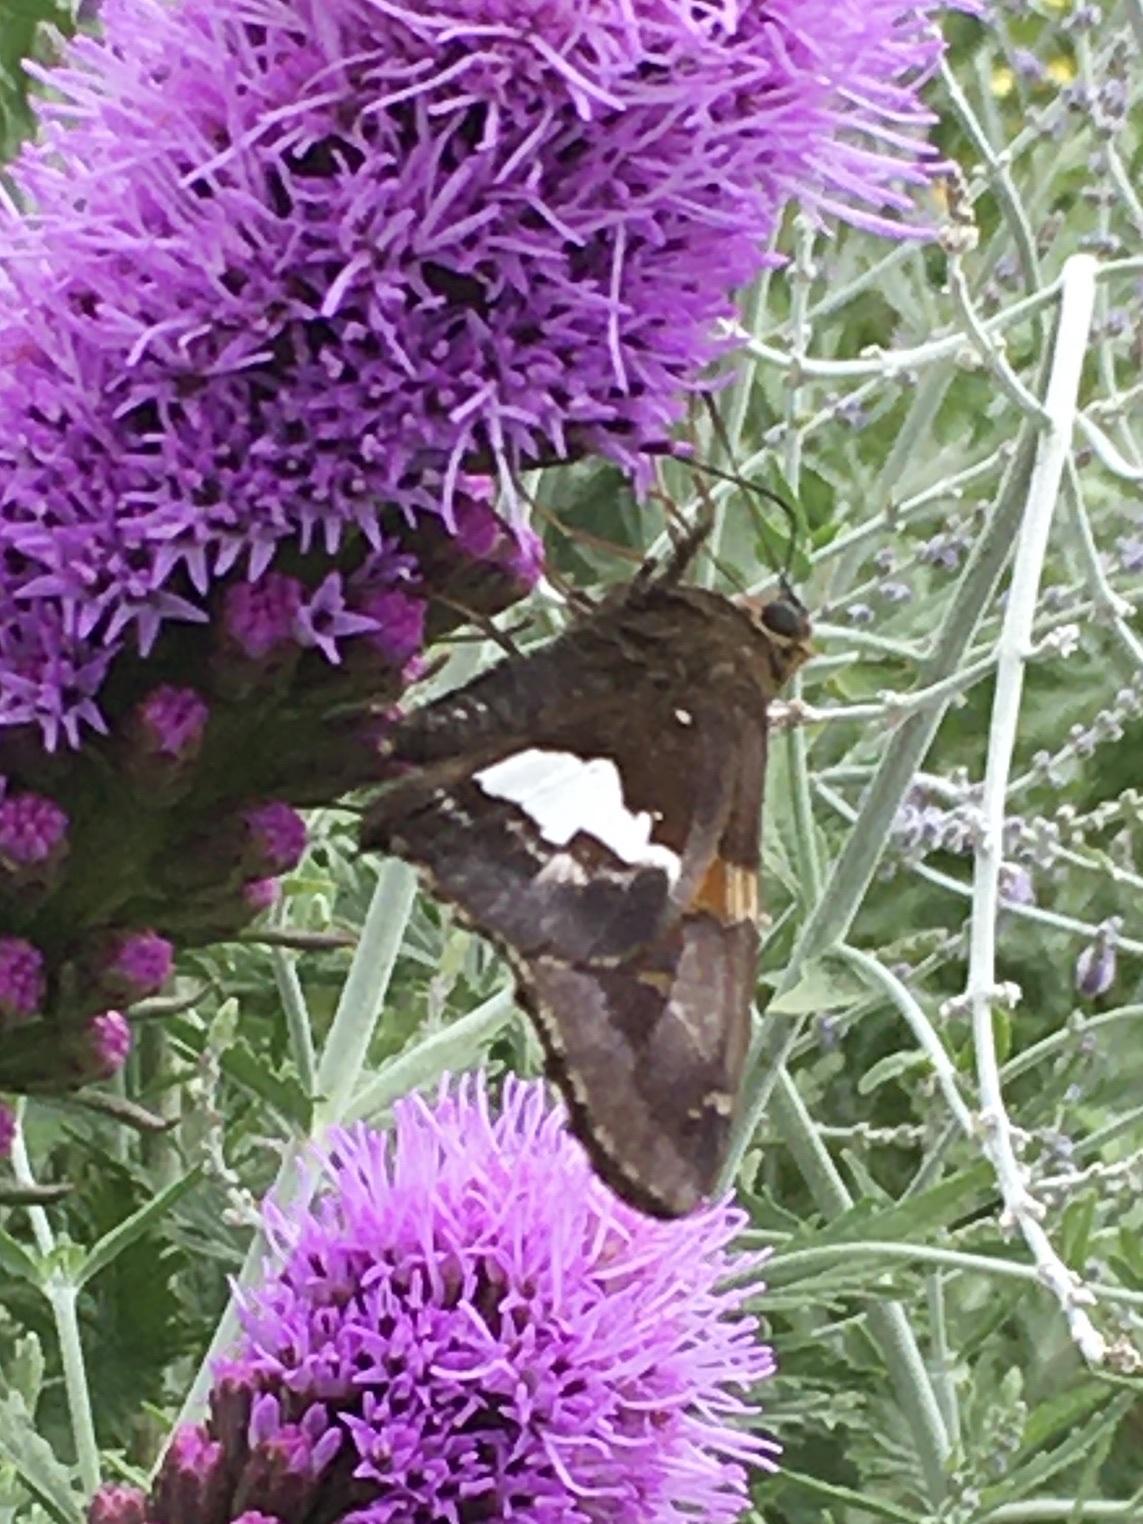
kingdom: Animalia
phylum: Arthropoda
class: Insecta
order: Lepidoptera
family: Hesperiidae
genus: Epargyreus
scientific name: Epargyreus clarus
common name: Silver-spotted skipper
